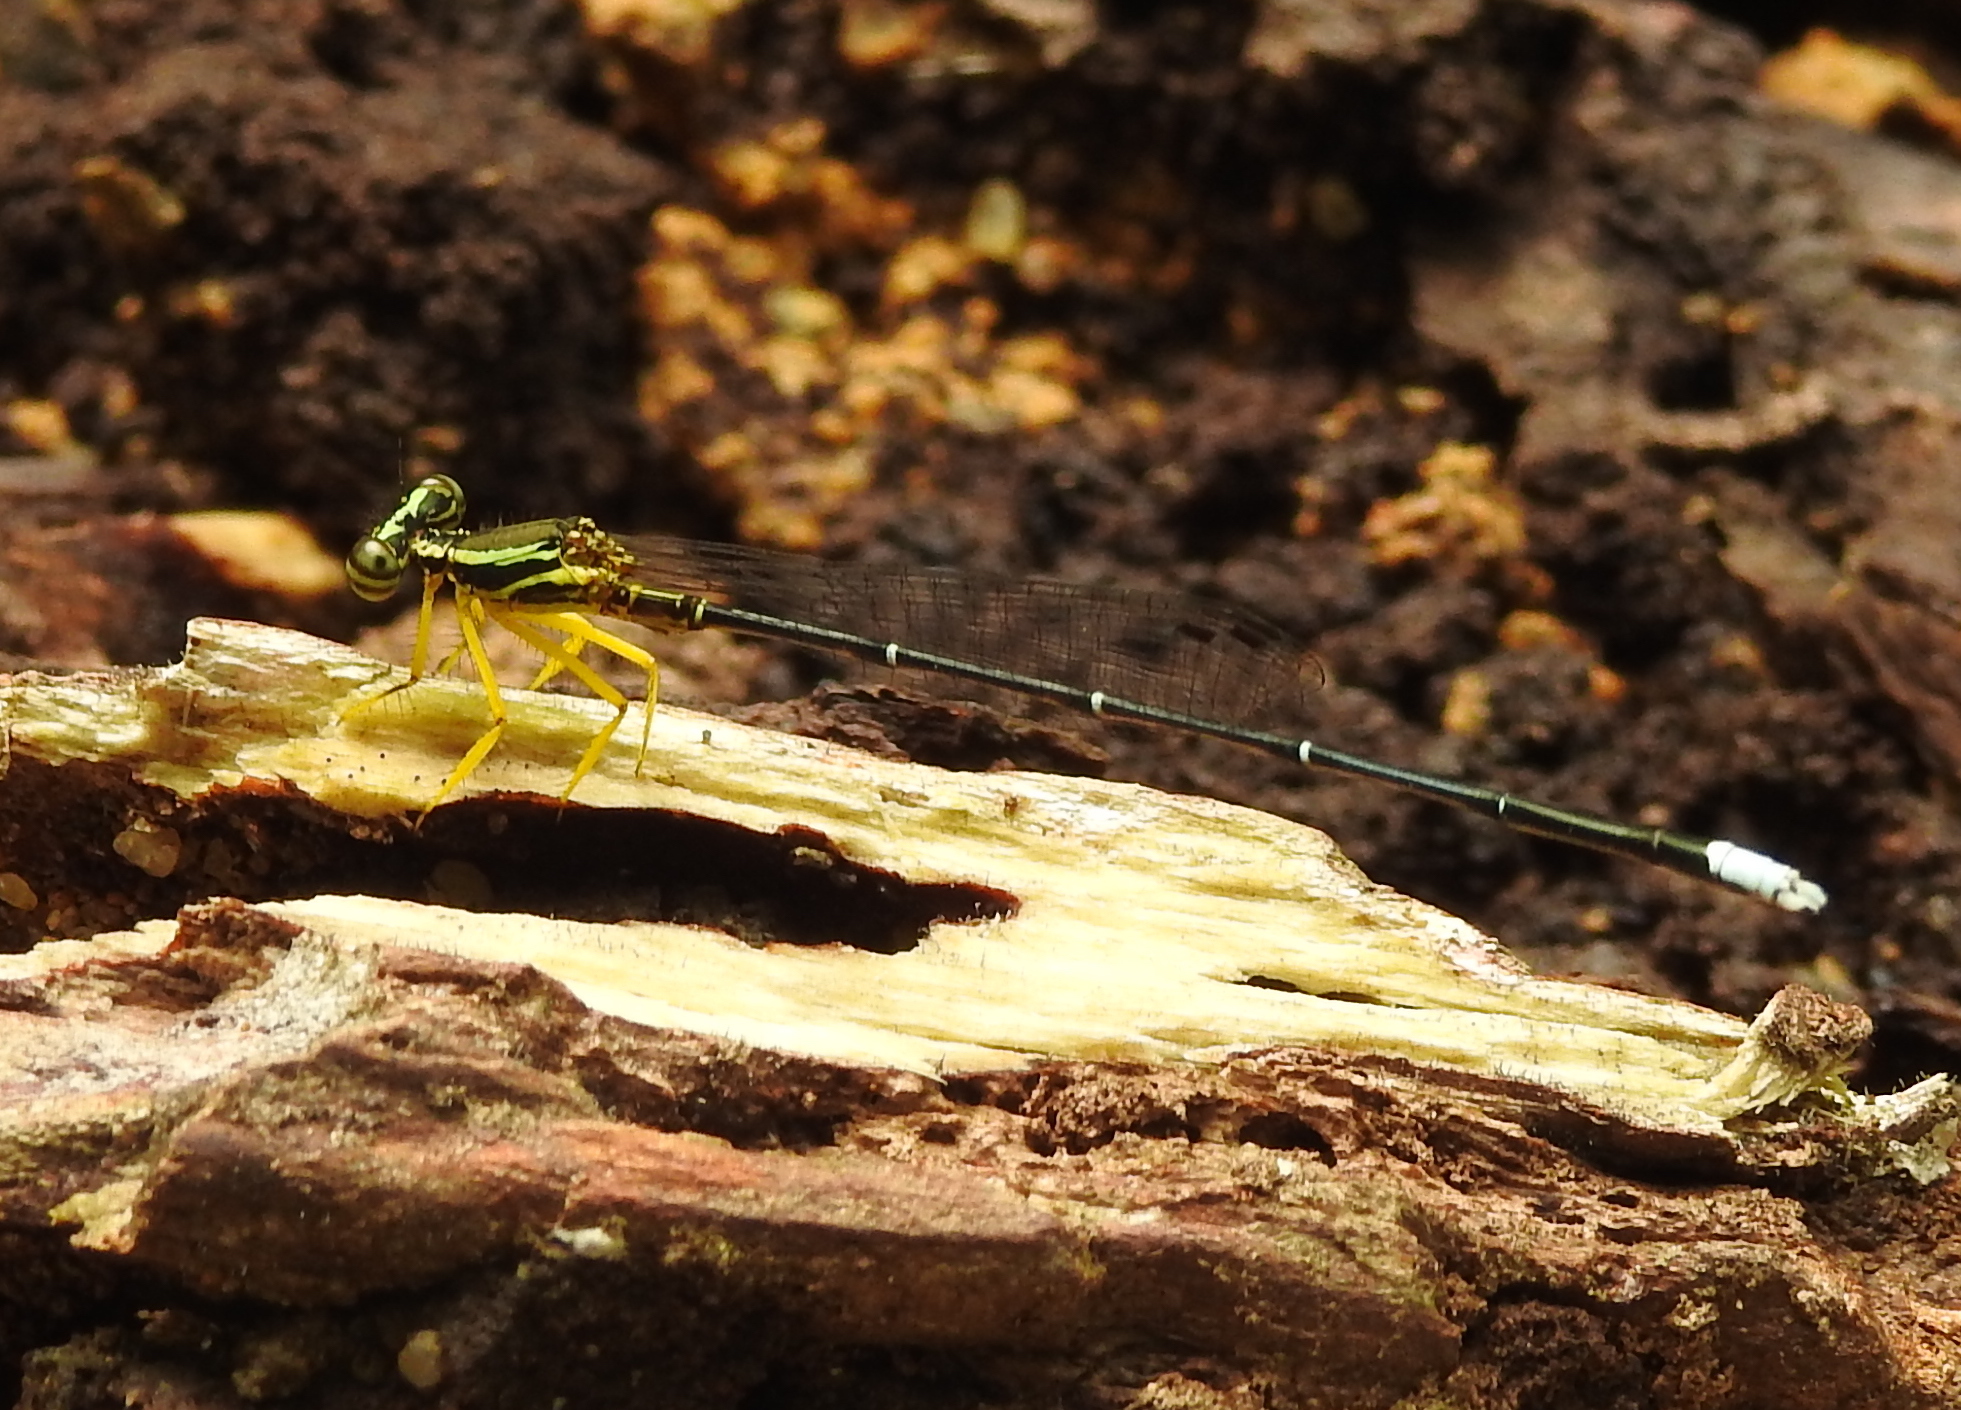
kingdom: Animalia
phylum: Arthropoda
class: Insecta
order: Odonata
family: Platycnemididae
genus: Copera
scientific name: Copera marginipes
